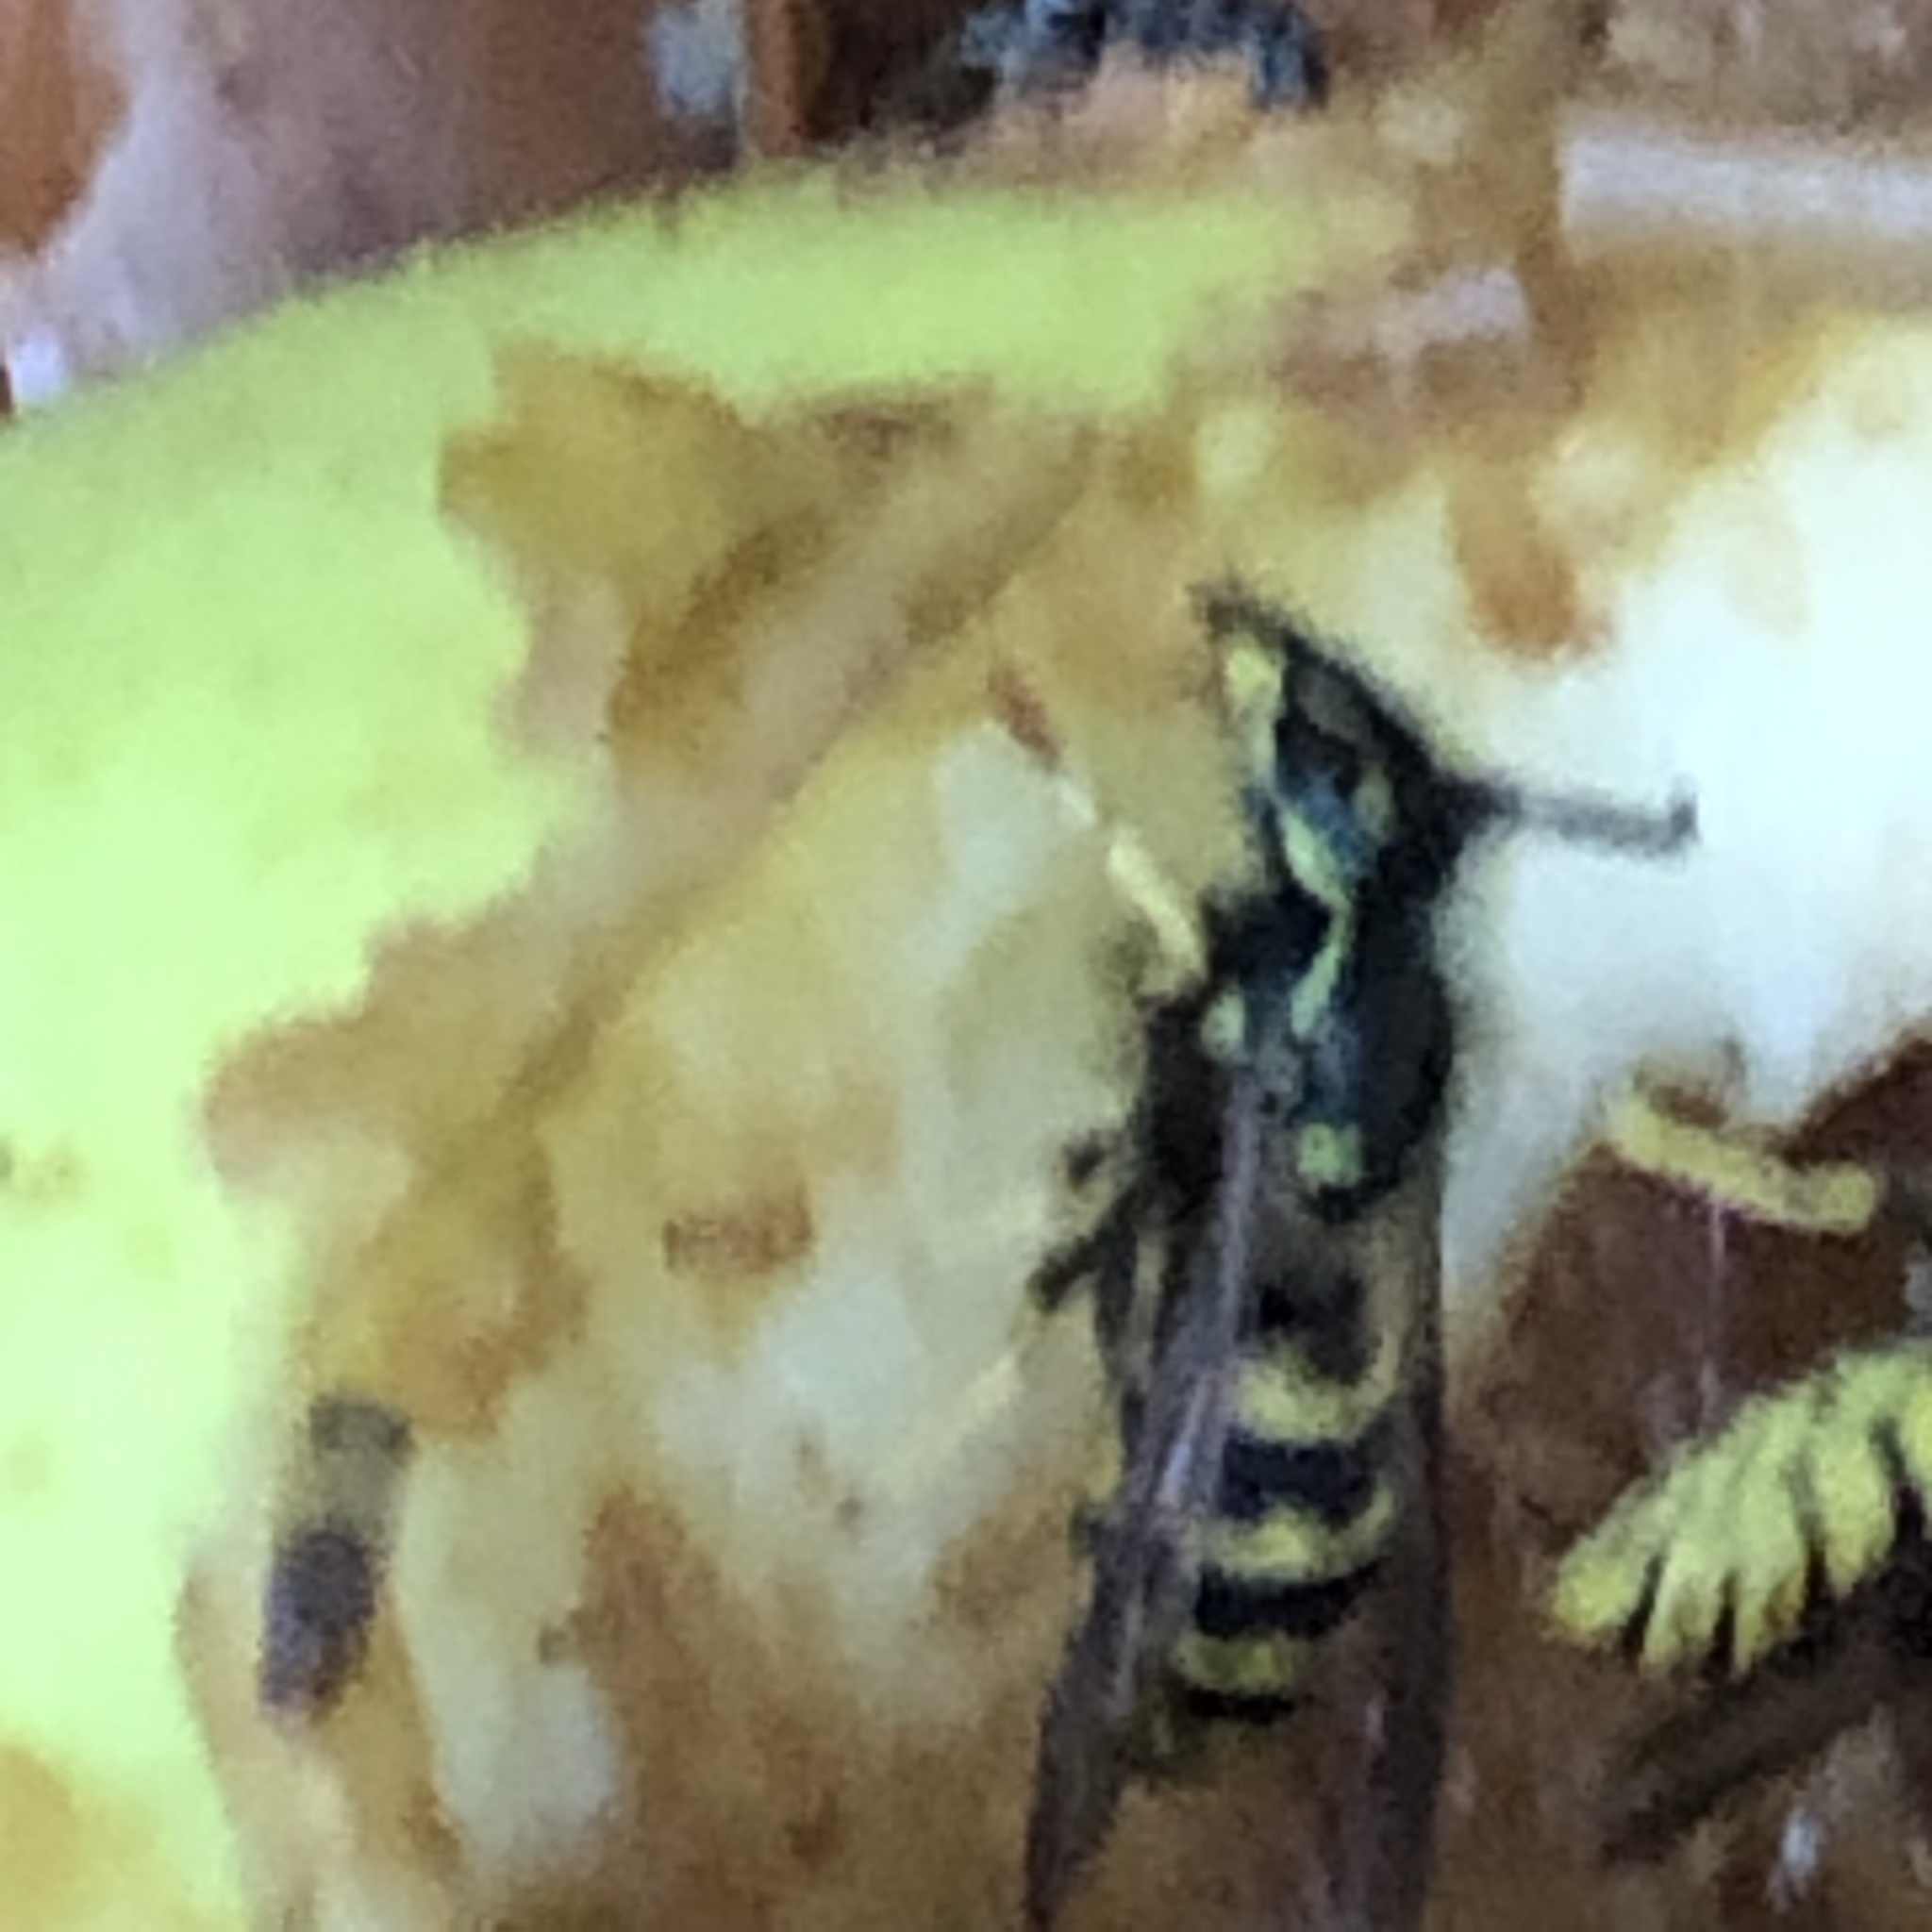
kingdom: Animalia
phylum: Arthropoda
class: Insecta
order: Hymenoptera
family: Vespidae
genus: Vespula
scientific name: Vespula alascensis
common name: Alaska yellowjacket
